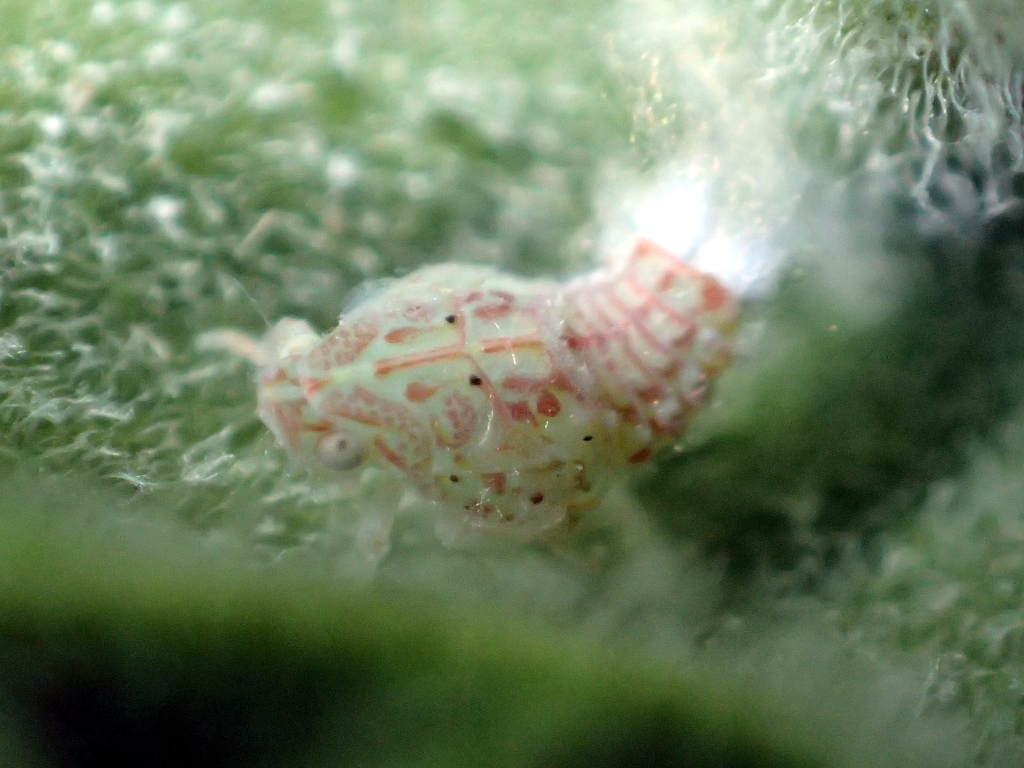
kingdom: Animalia
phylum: Arthropoda
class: Insecta
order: Hemiptera
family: Flatidae
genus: Siphanta
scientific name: Siphanta acuta
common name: Torpedo bug
